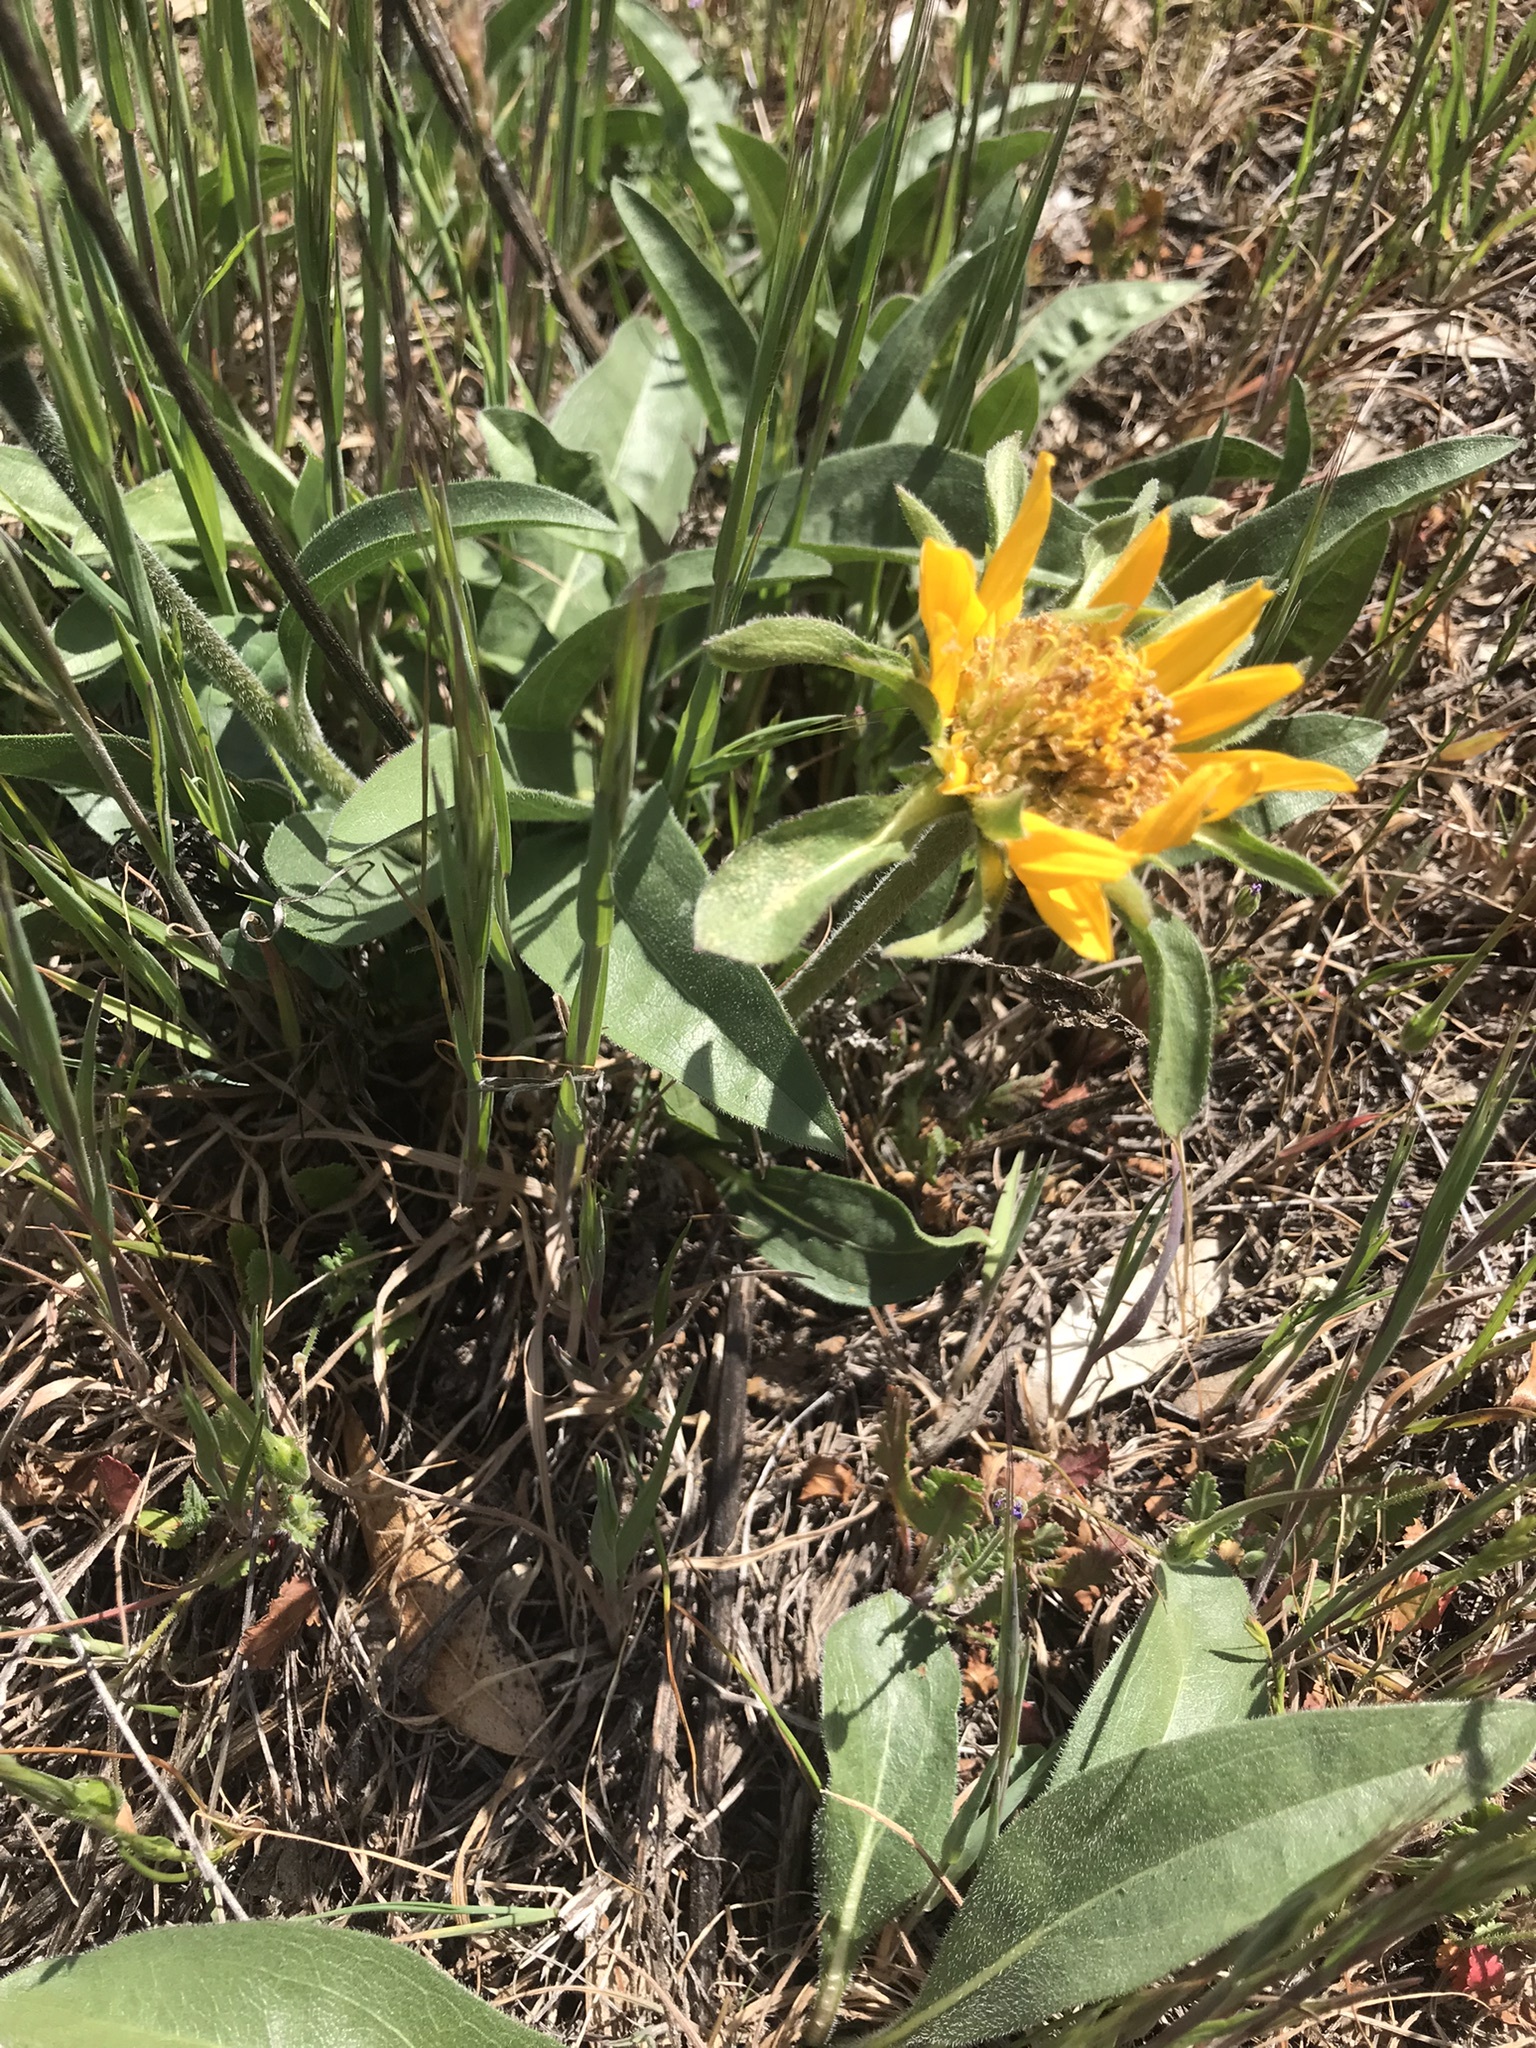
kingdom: Plantae
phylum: Tracheophyta
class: Magnoliopsida
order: Asterales
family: Asteraceae
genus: Helianthella
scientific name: Helianthella castanea
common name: Diablo helianthella
